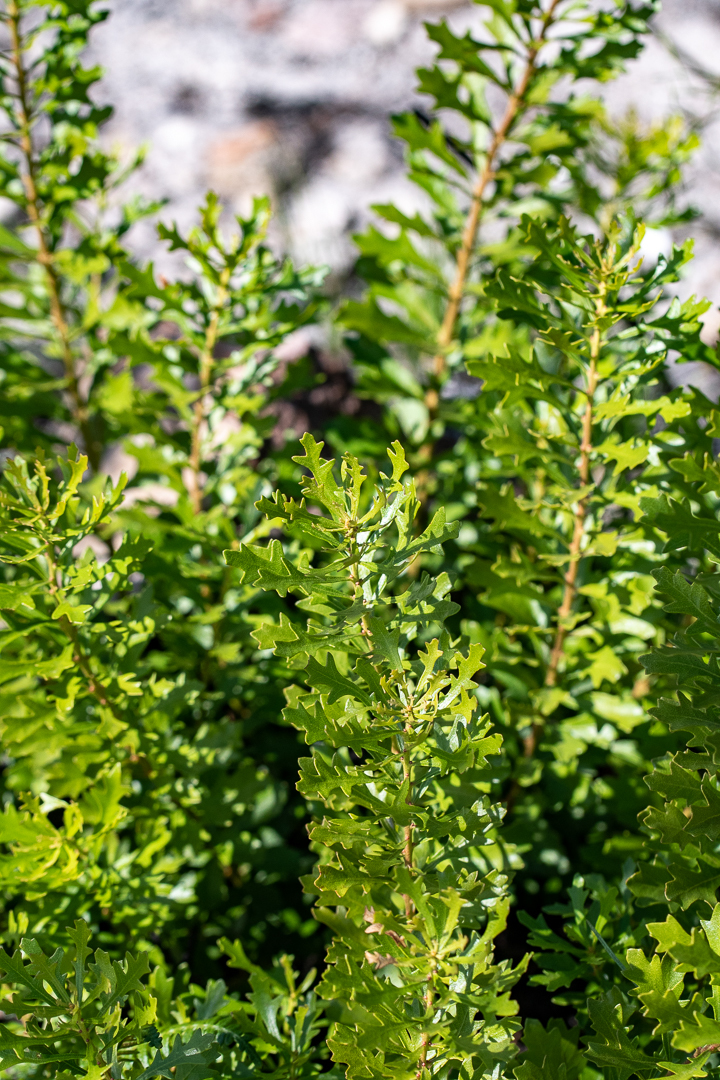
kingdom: Plantae
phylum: Tracheophyta
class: Magnoliopsida
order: Fagales
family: Myricaceae
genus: Morella
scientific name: Morella quercifolia
